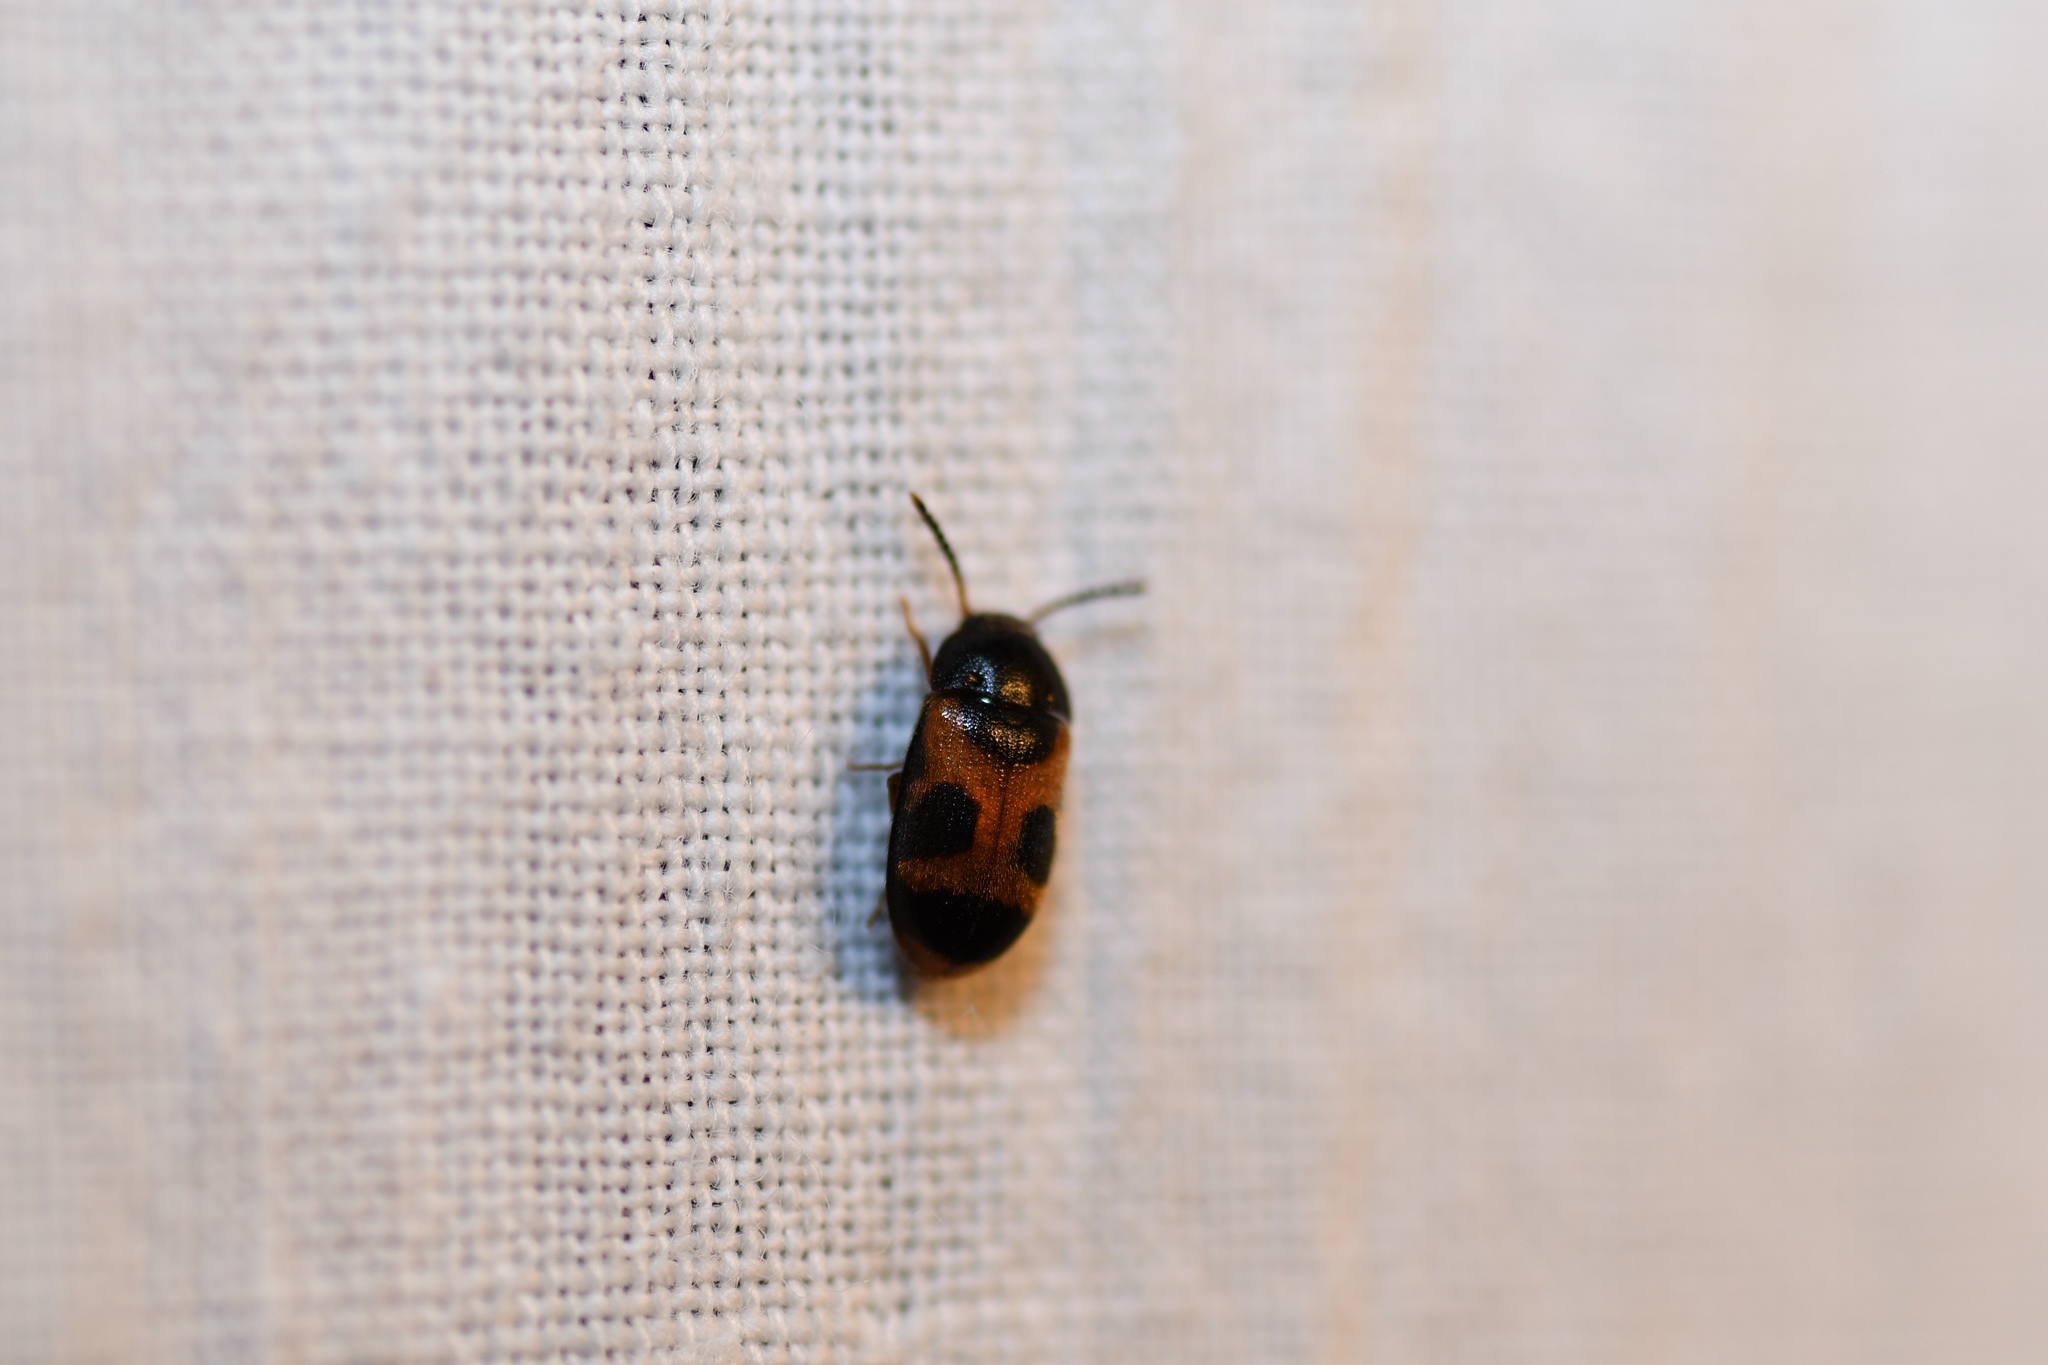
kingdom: Animalia
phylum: Arthropoda
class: Insecta
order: Coleoptera
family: Mycetophagidae
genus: Mycetophagus
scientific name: Mycetophagus punctatus
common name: Hairy fungus beetle
